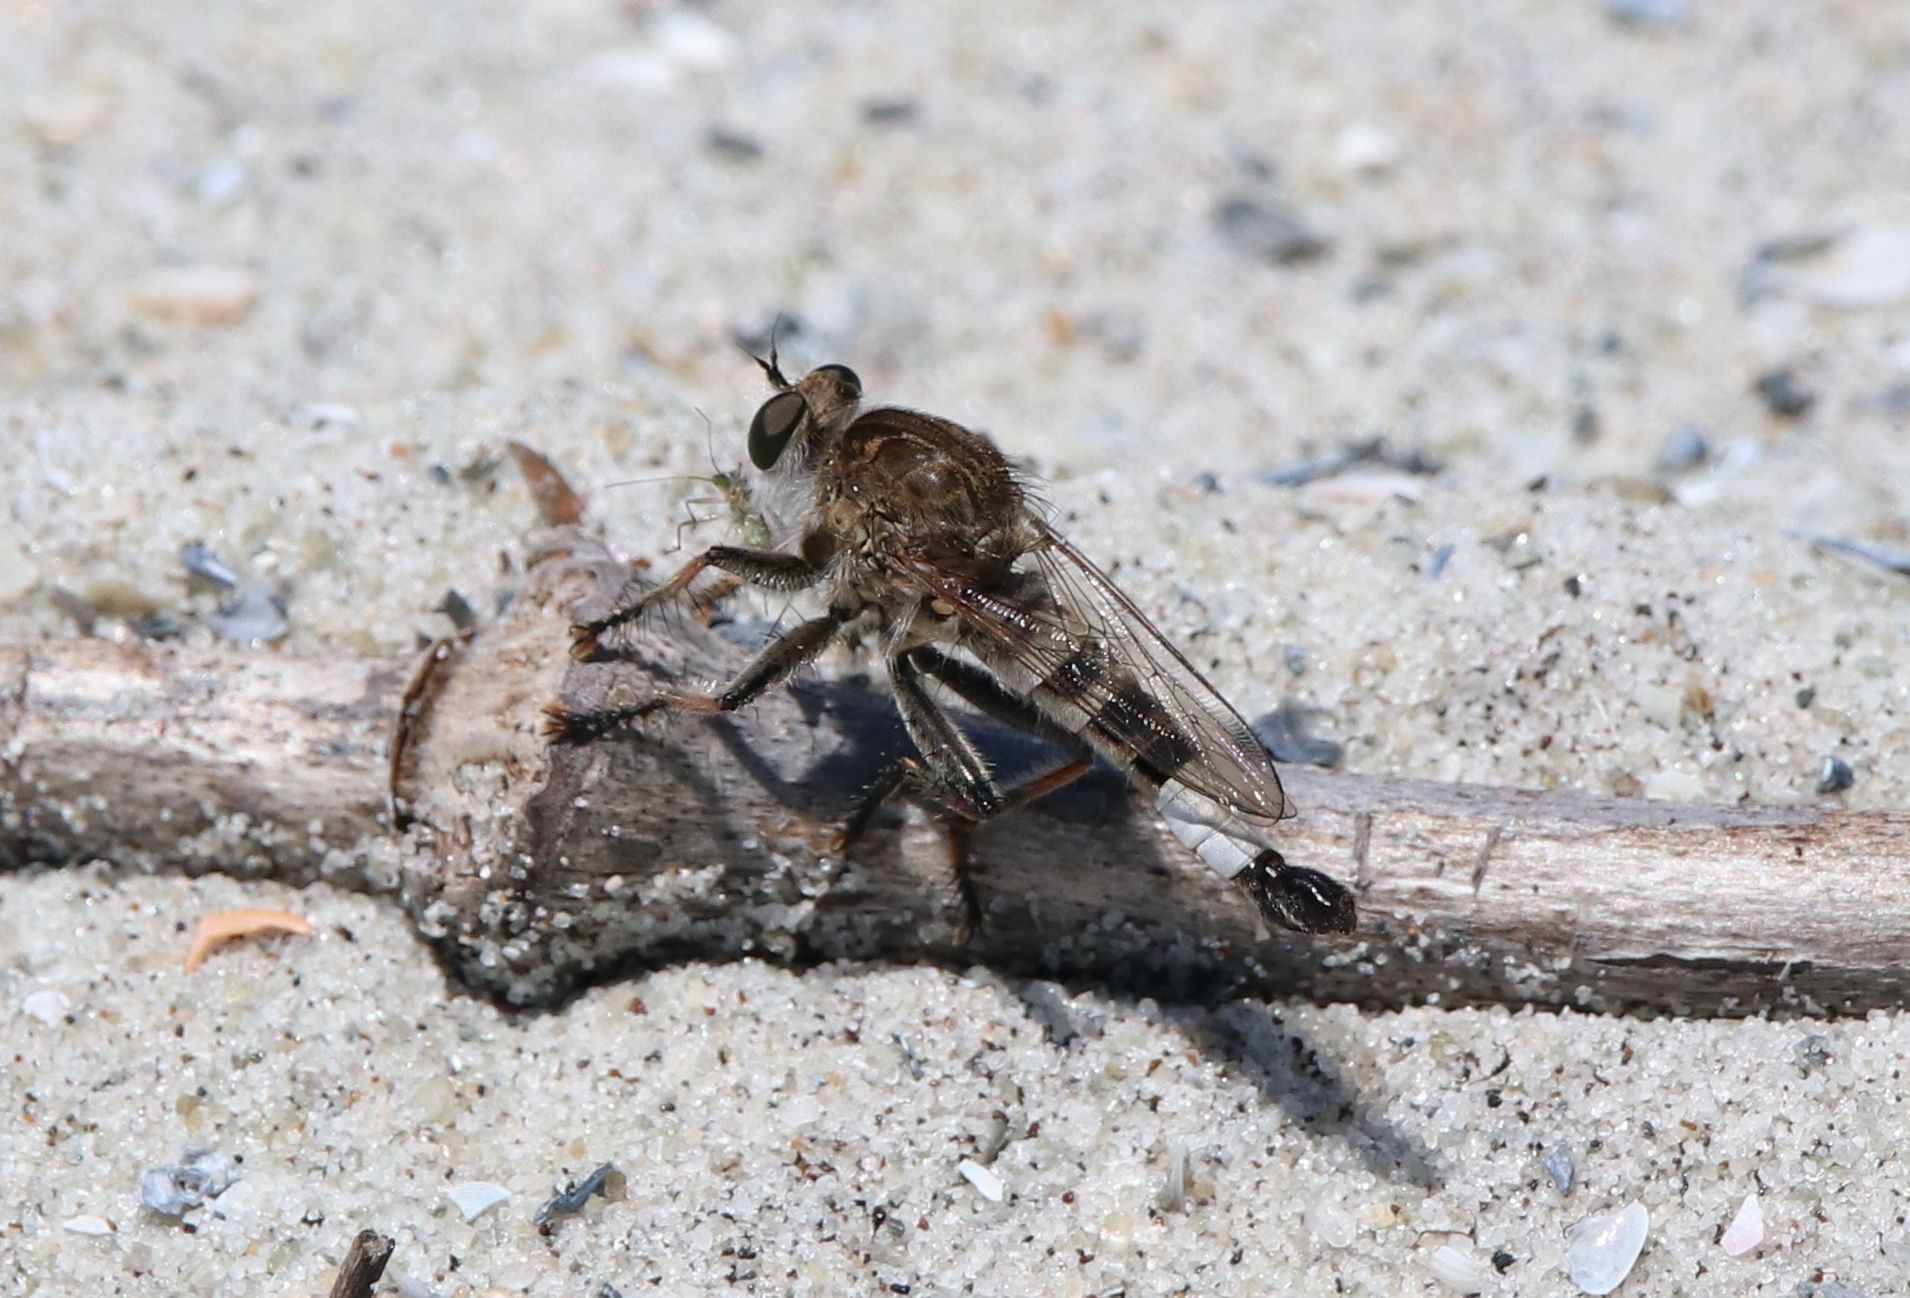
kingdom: Animalia
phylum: Arthropoda
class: Insecta
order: Diptera
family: Asilidae
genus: Efferia
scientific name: Efferia albibarbis
